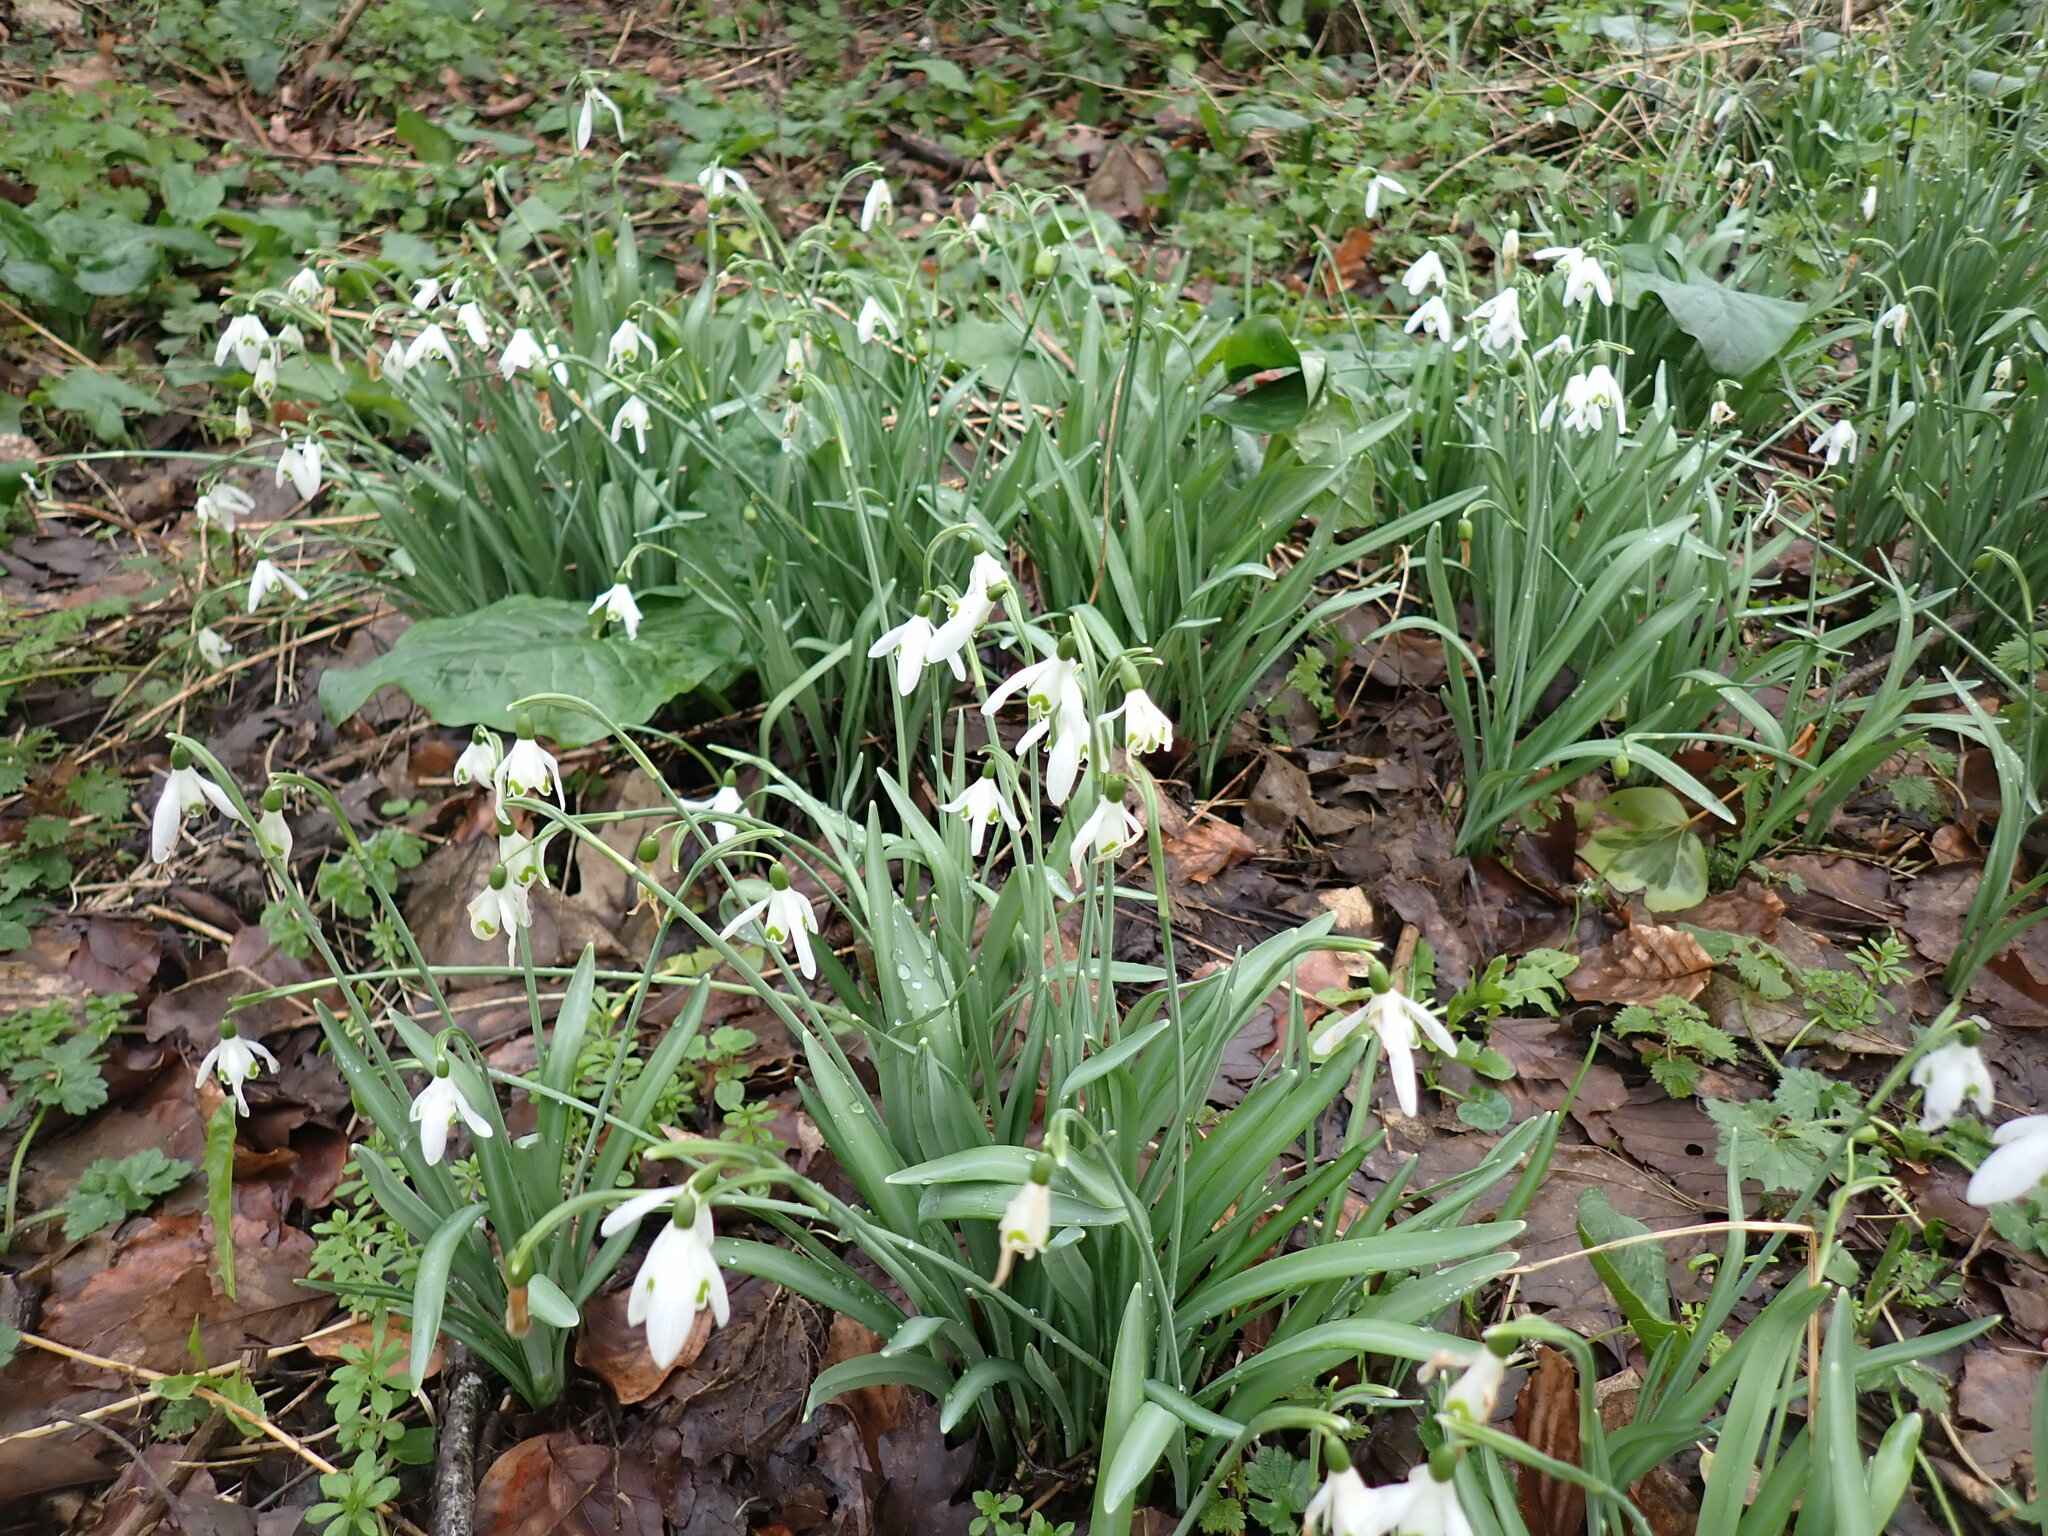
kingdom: Plantae
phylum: Tracheophyta
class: Liliopsida
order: Asparagales
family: Amaryllidaceae
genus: Galanthus
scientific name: Galanthus nivalis
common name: Snowdrop
